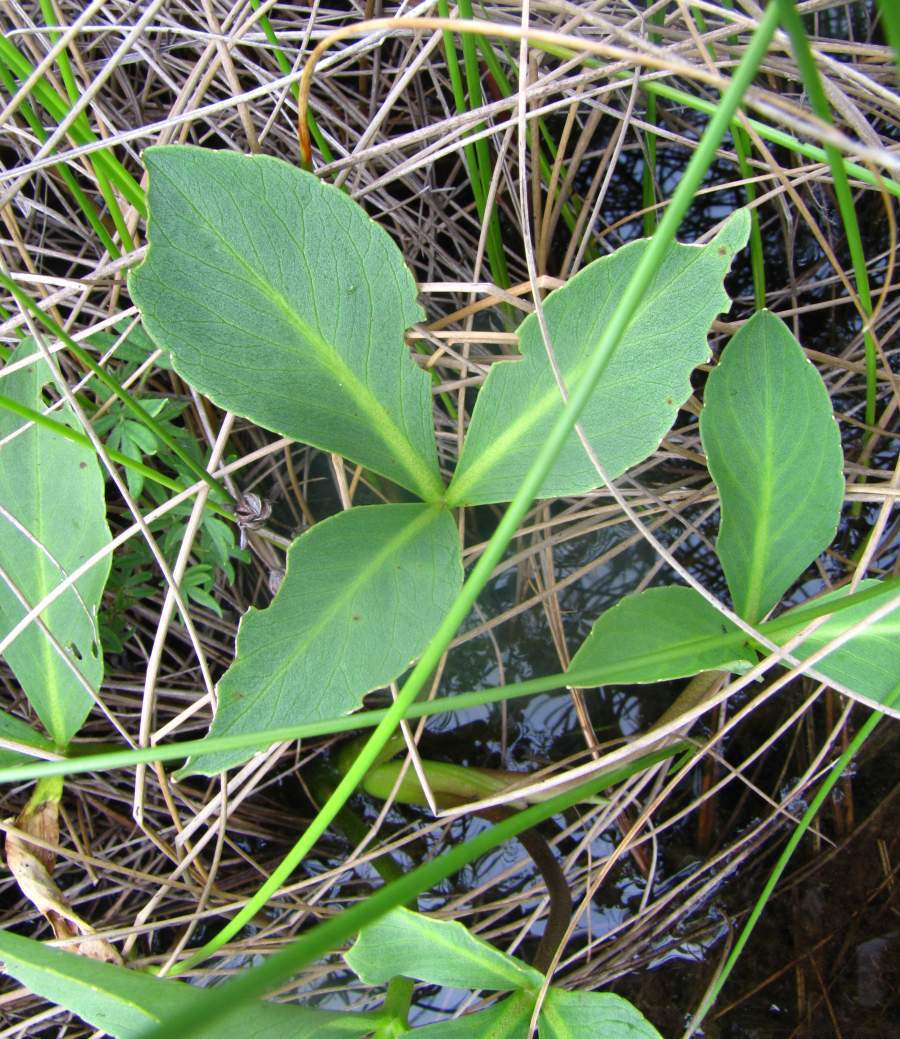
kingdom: Plantae
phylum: Tracheophyta
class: Magnoliopsida
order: Asterales
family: Menyanthaceae
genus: Menyanthes
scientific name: Menyanthes trifoliata
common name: Bogbean
